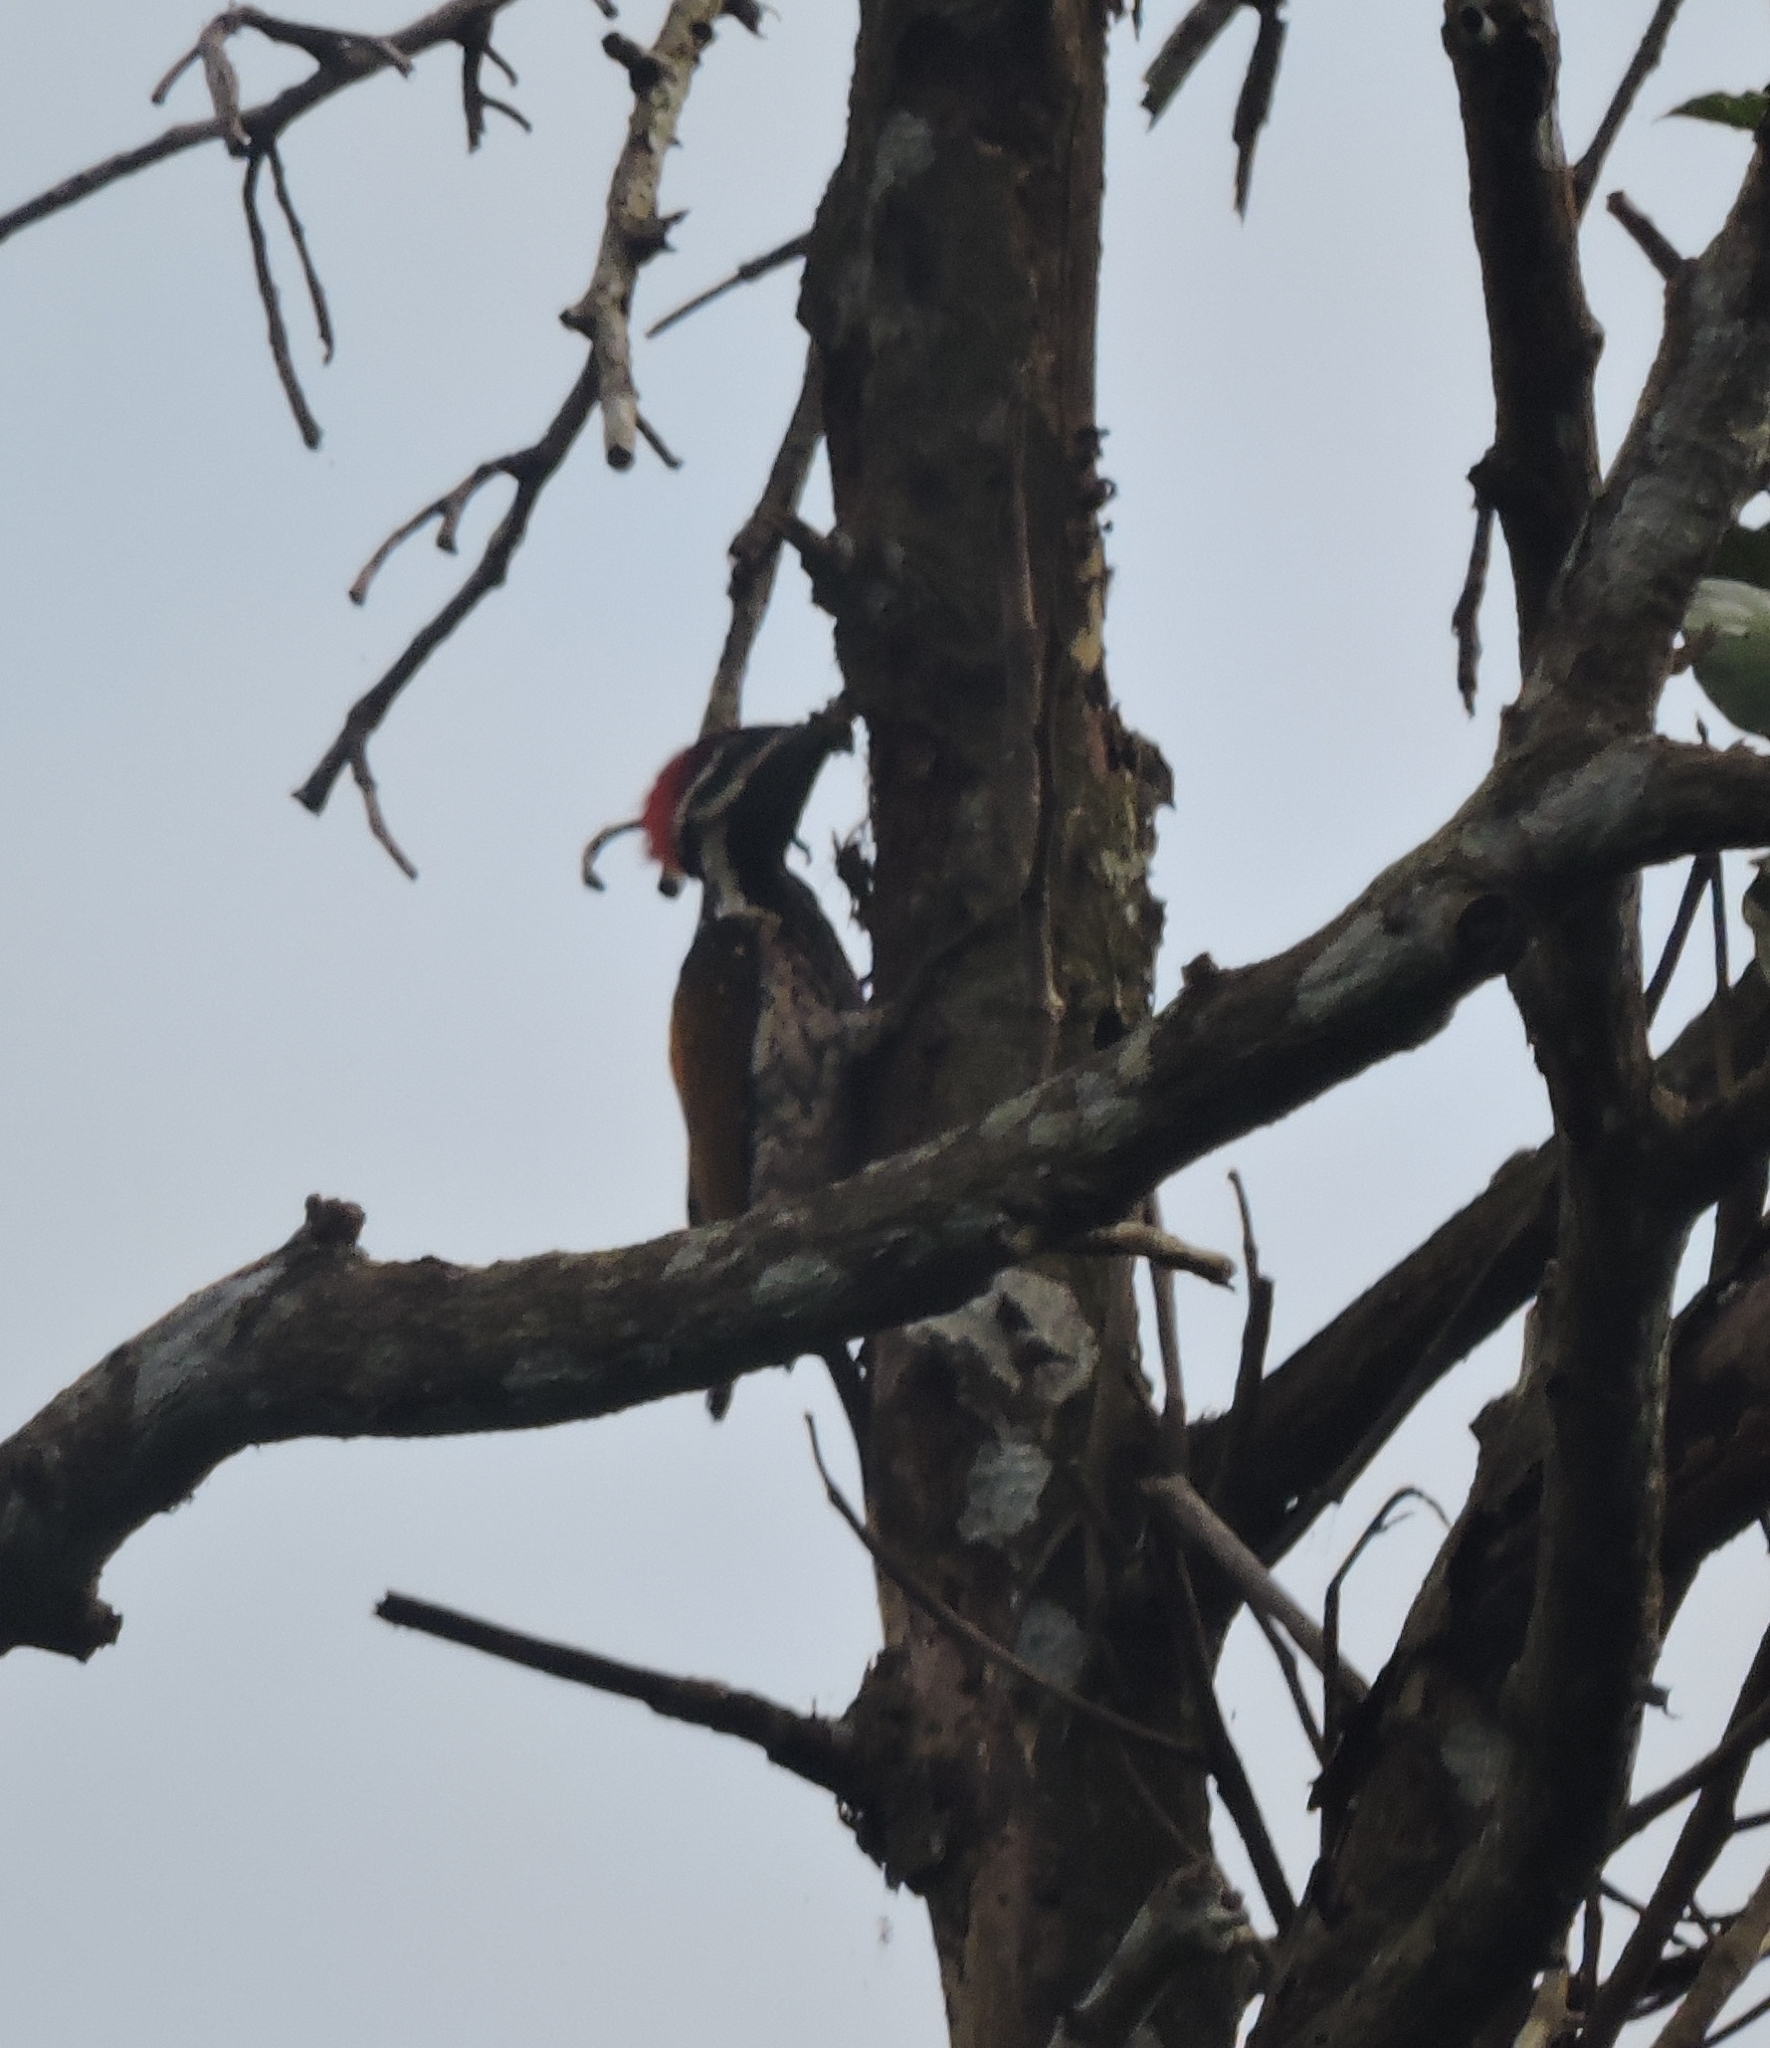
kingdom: Animalia
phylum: Chordata
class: Aves
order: Piciformes
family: Picidae
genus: Dinopium
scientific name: Dinopium benghalense
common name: Black-rumped flameback
